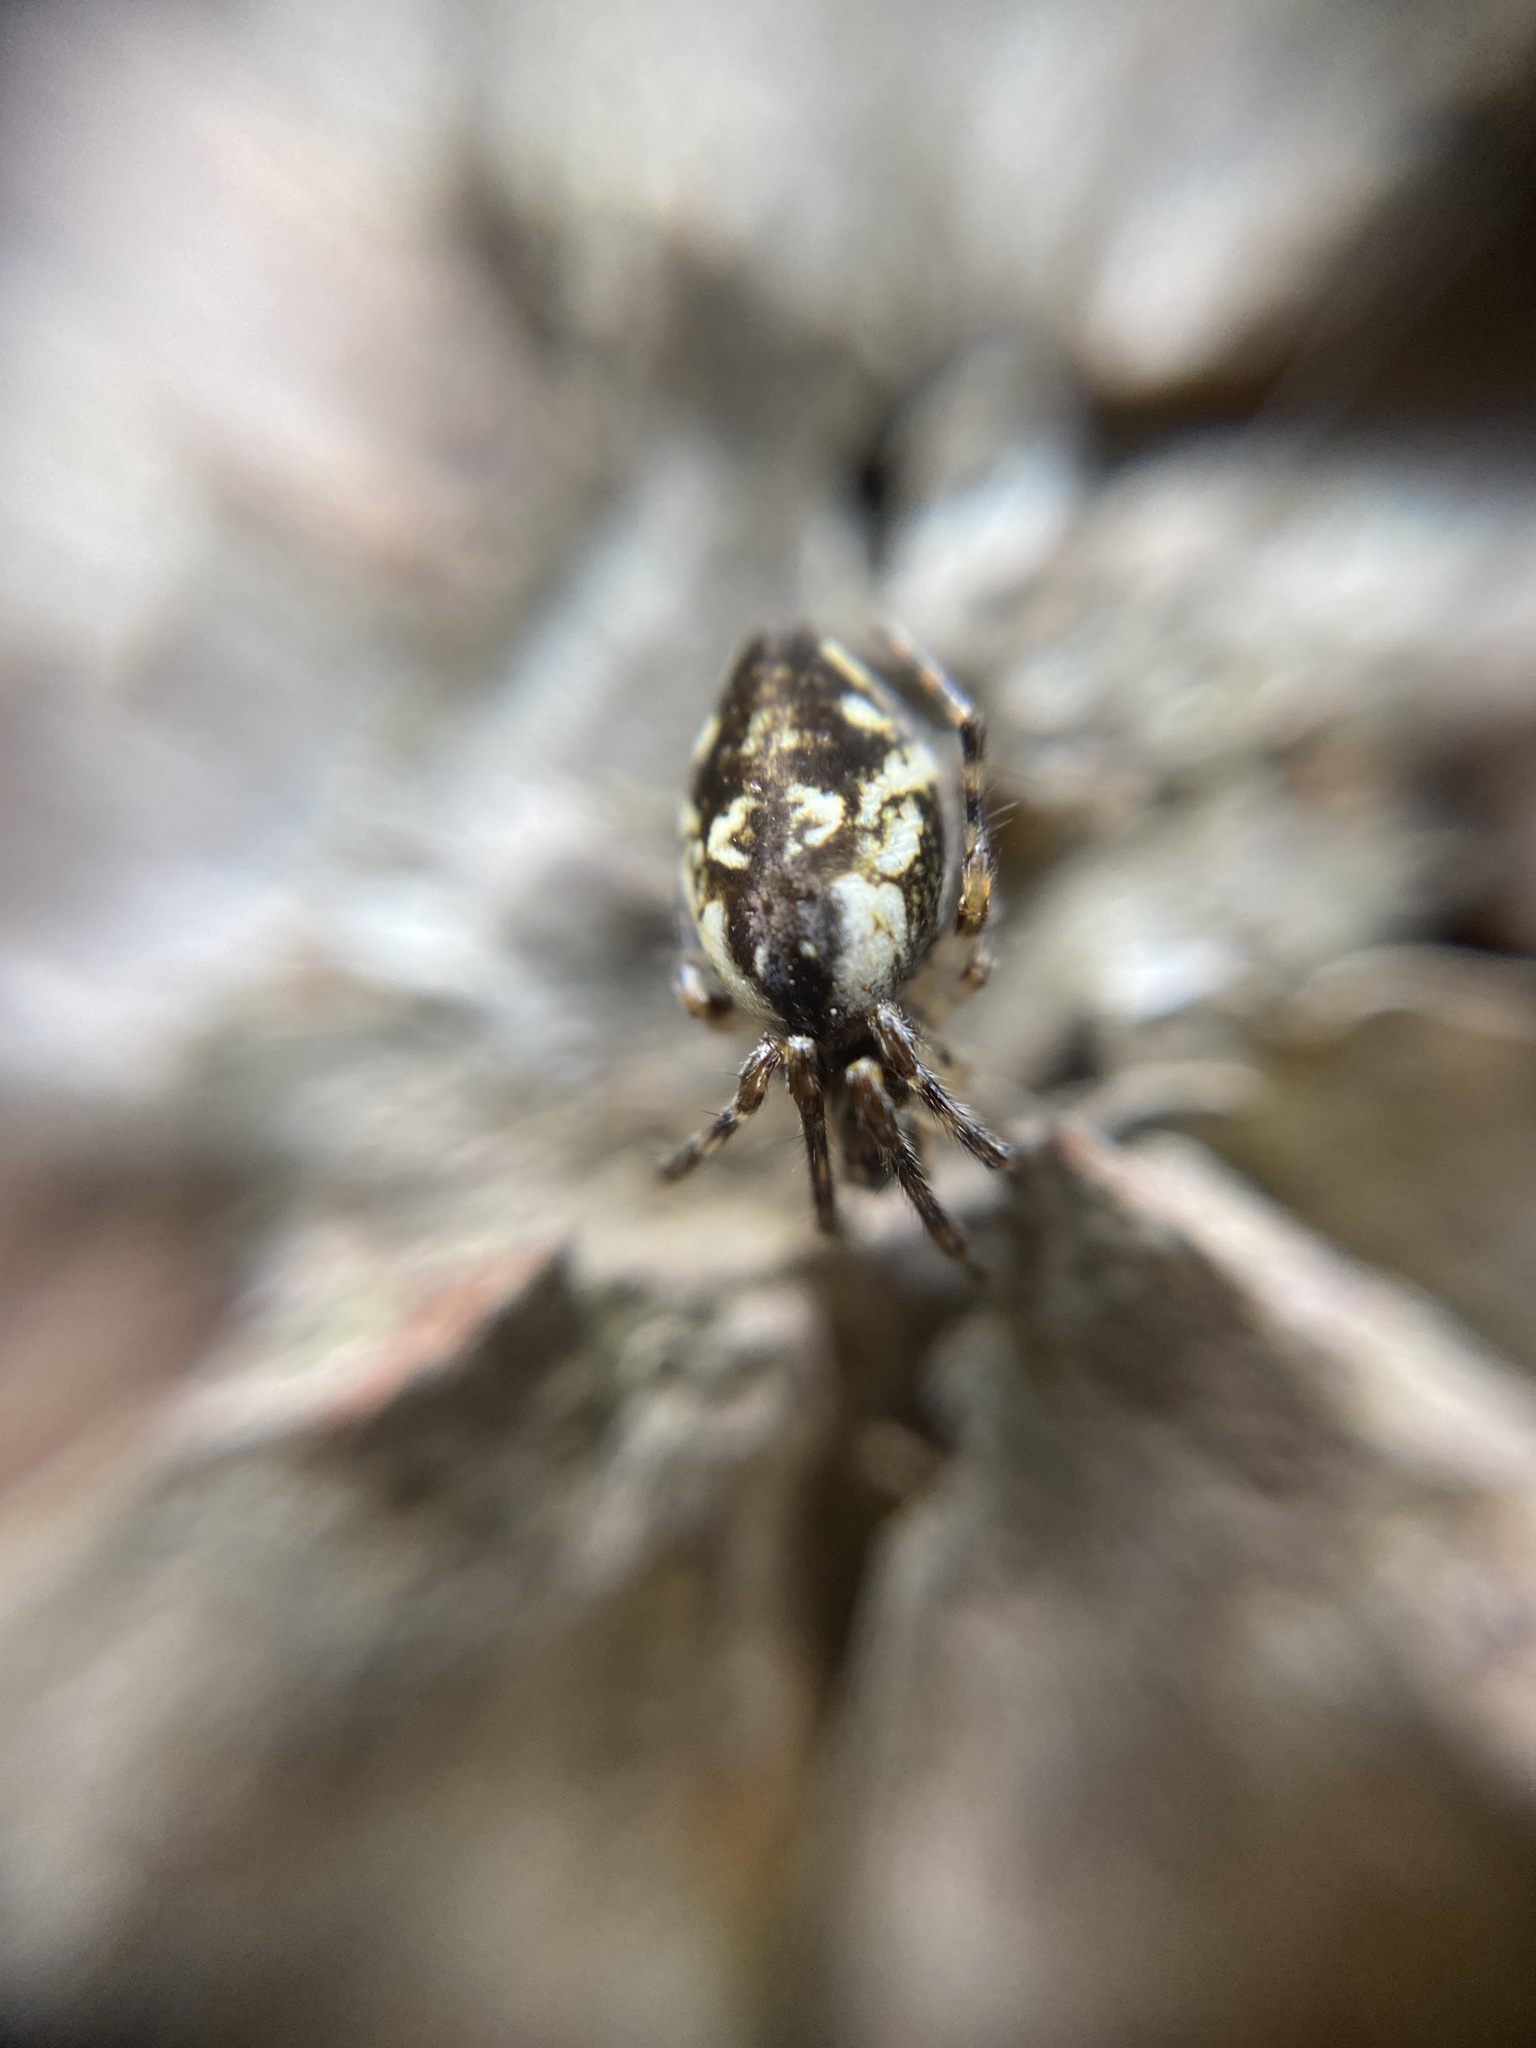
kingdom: Animalia
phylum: Arthropoda
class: Arachnida
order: Araneae
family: Araneidae
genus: Cyclosa
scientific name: Cyclosa conica
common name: Conical trashline orbweaver
